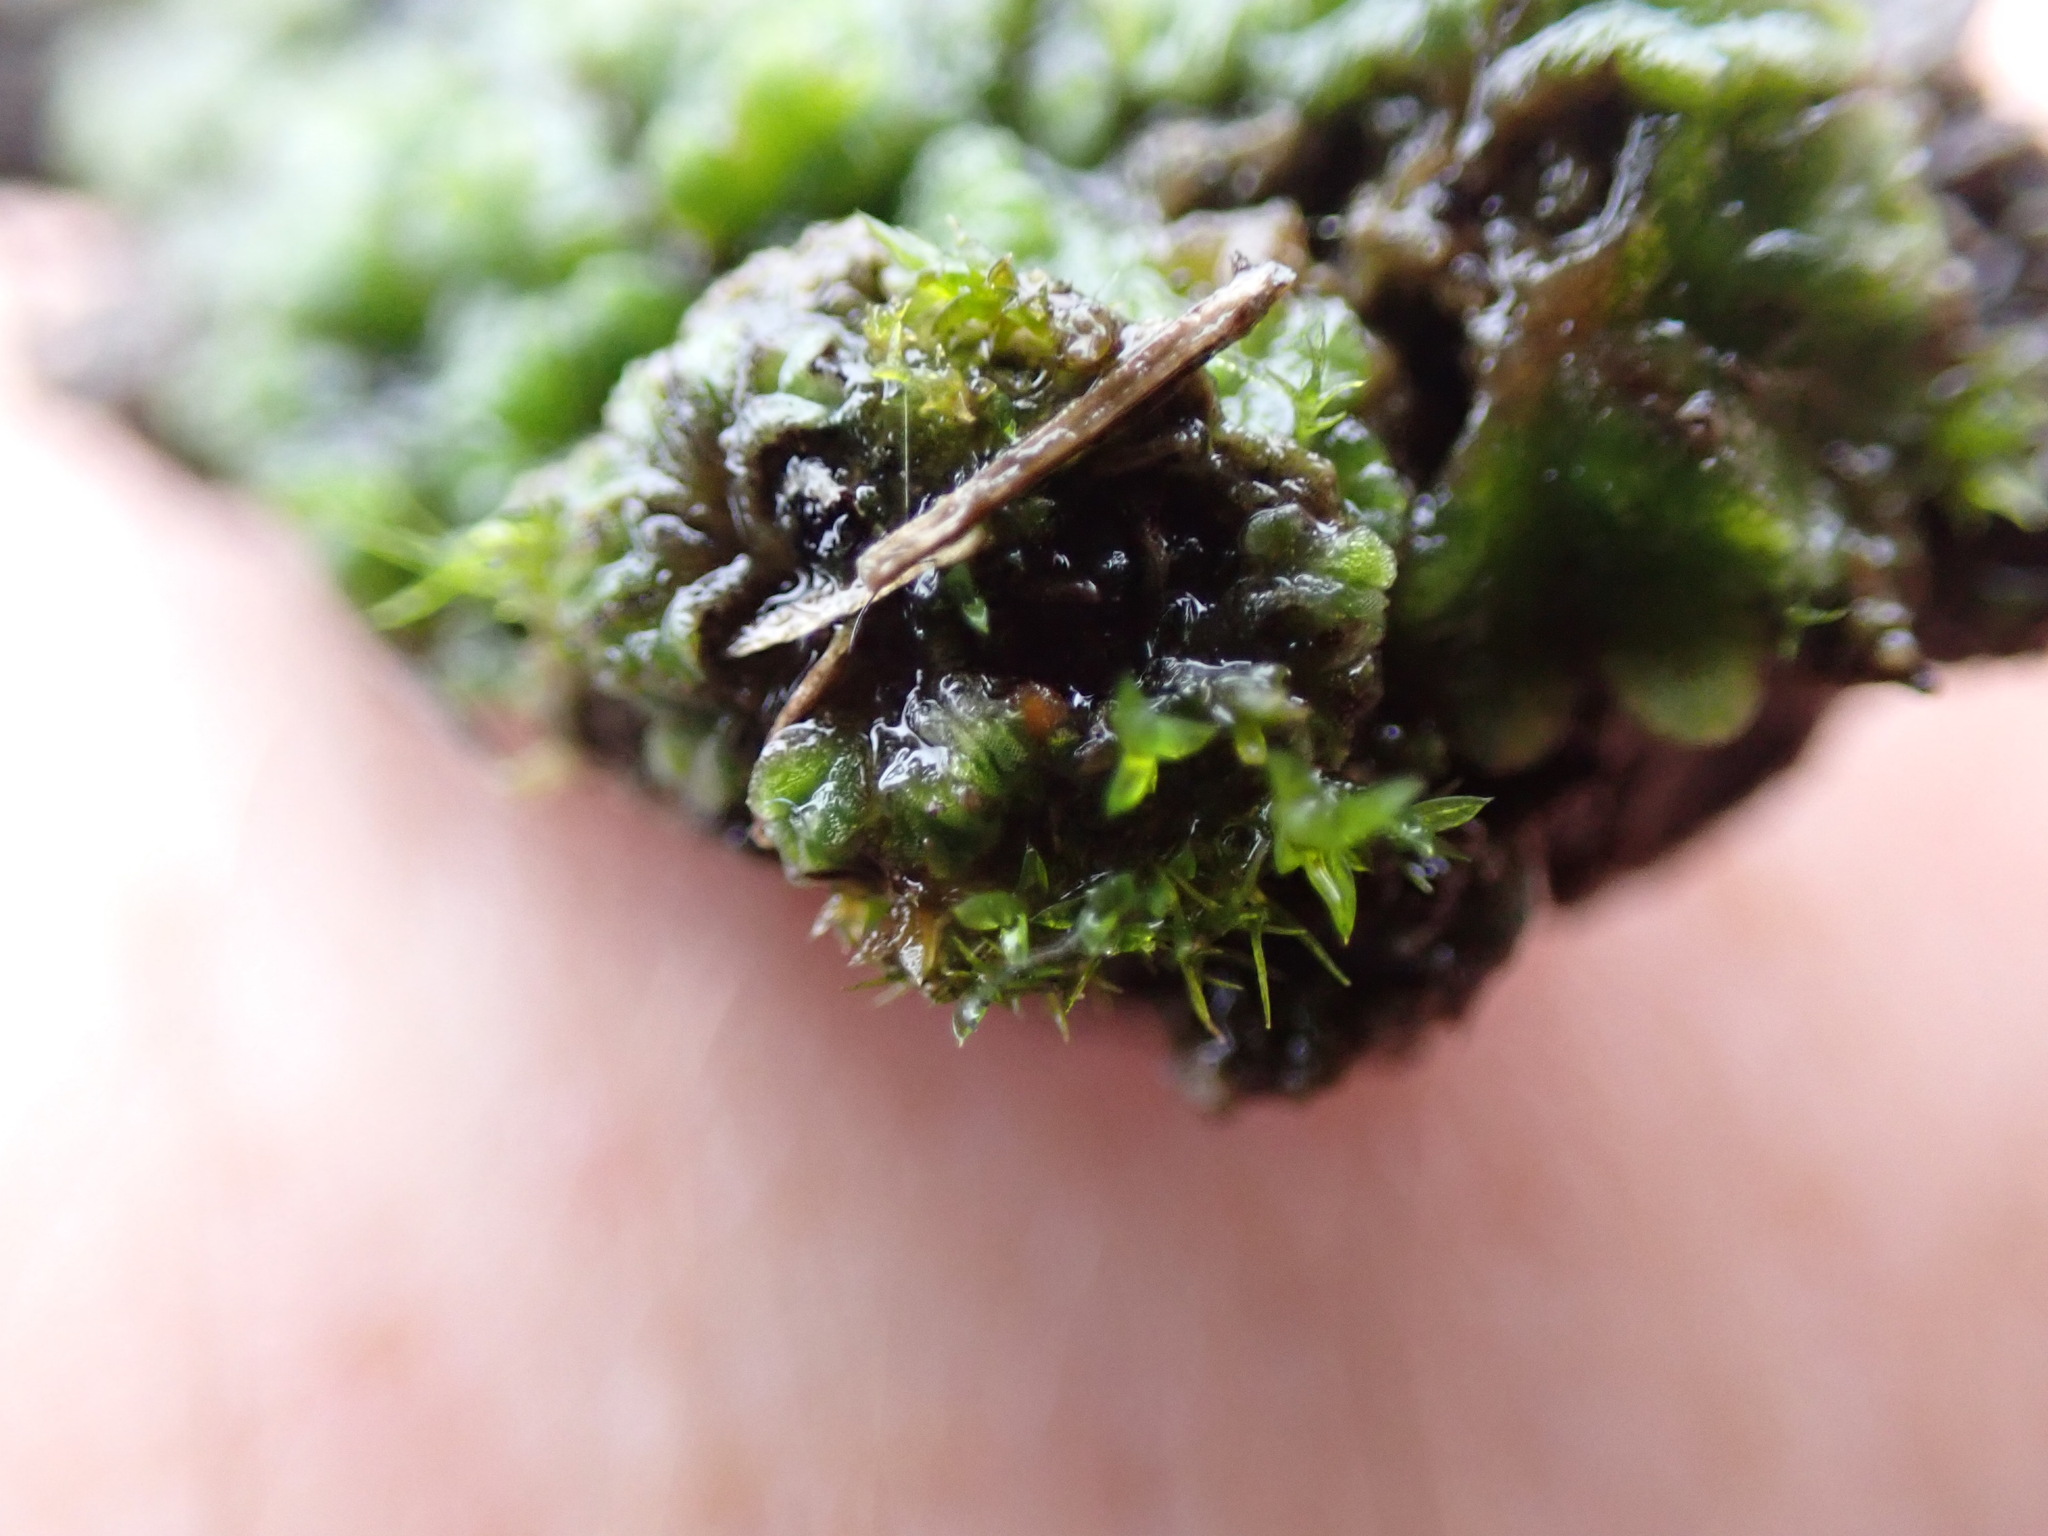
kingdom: Plantae
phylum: Marchantiophyta
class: Marchantiopsida
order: Marchantiales
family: Ricciaceae
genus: Riccia
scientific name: Riccia sorocarpa
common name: Common crystalwort
